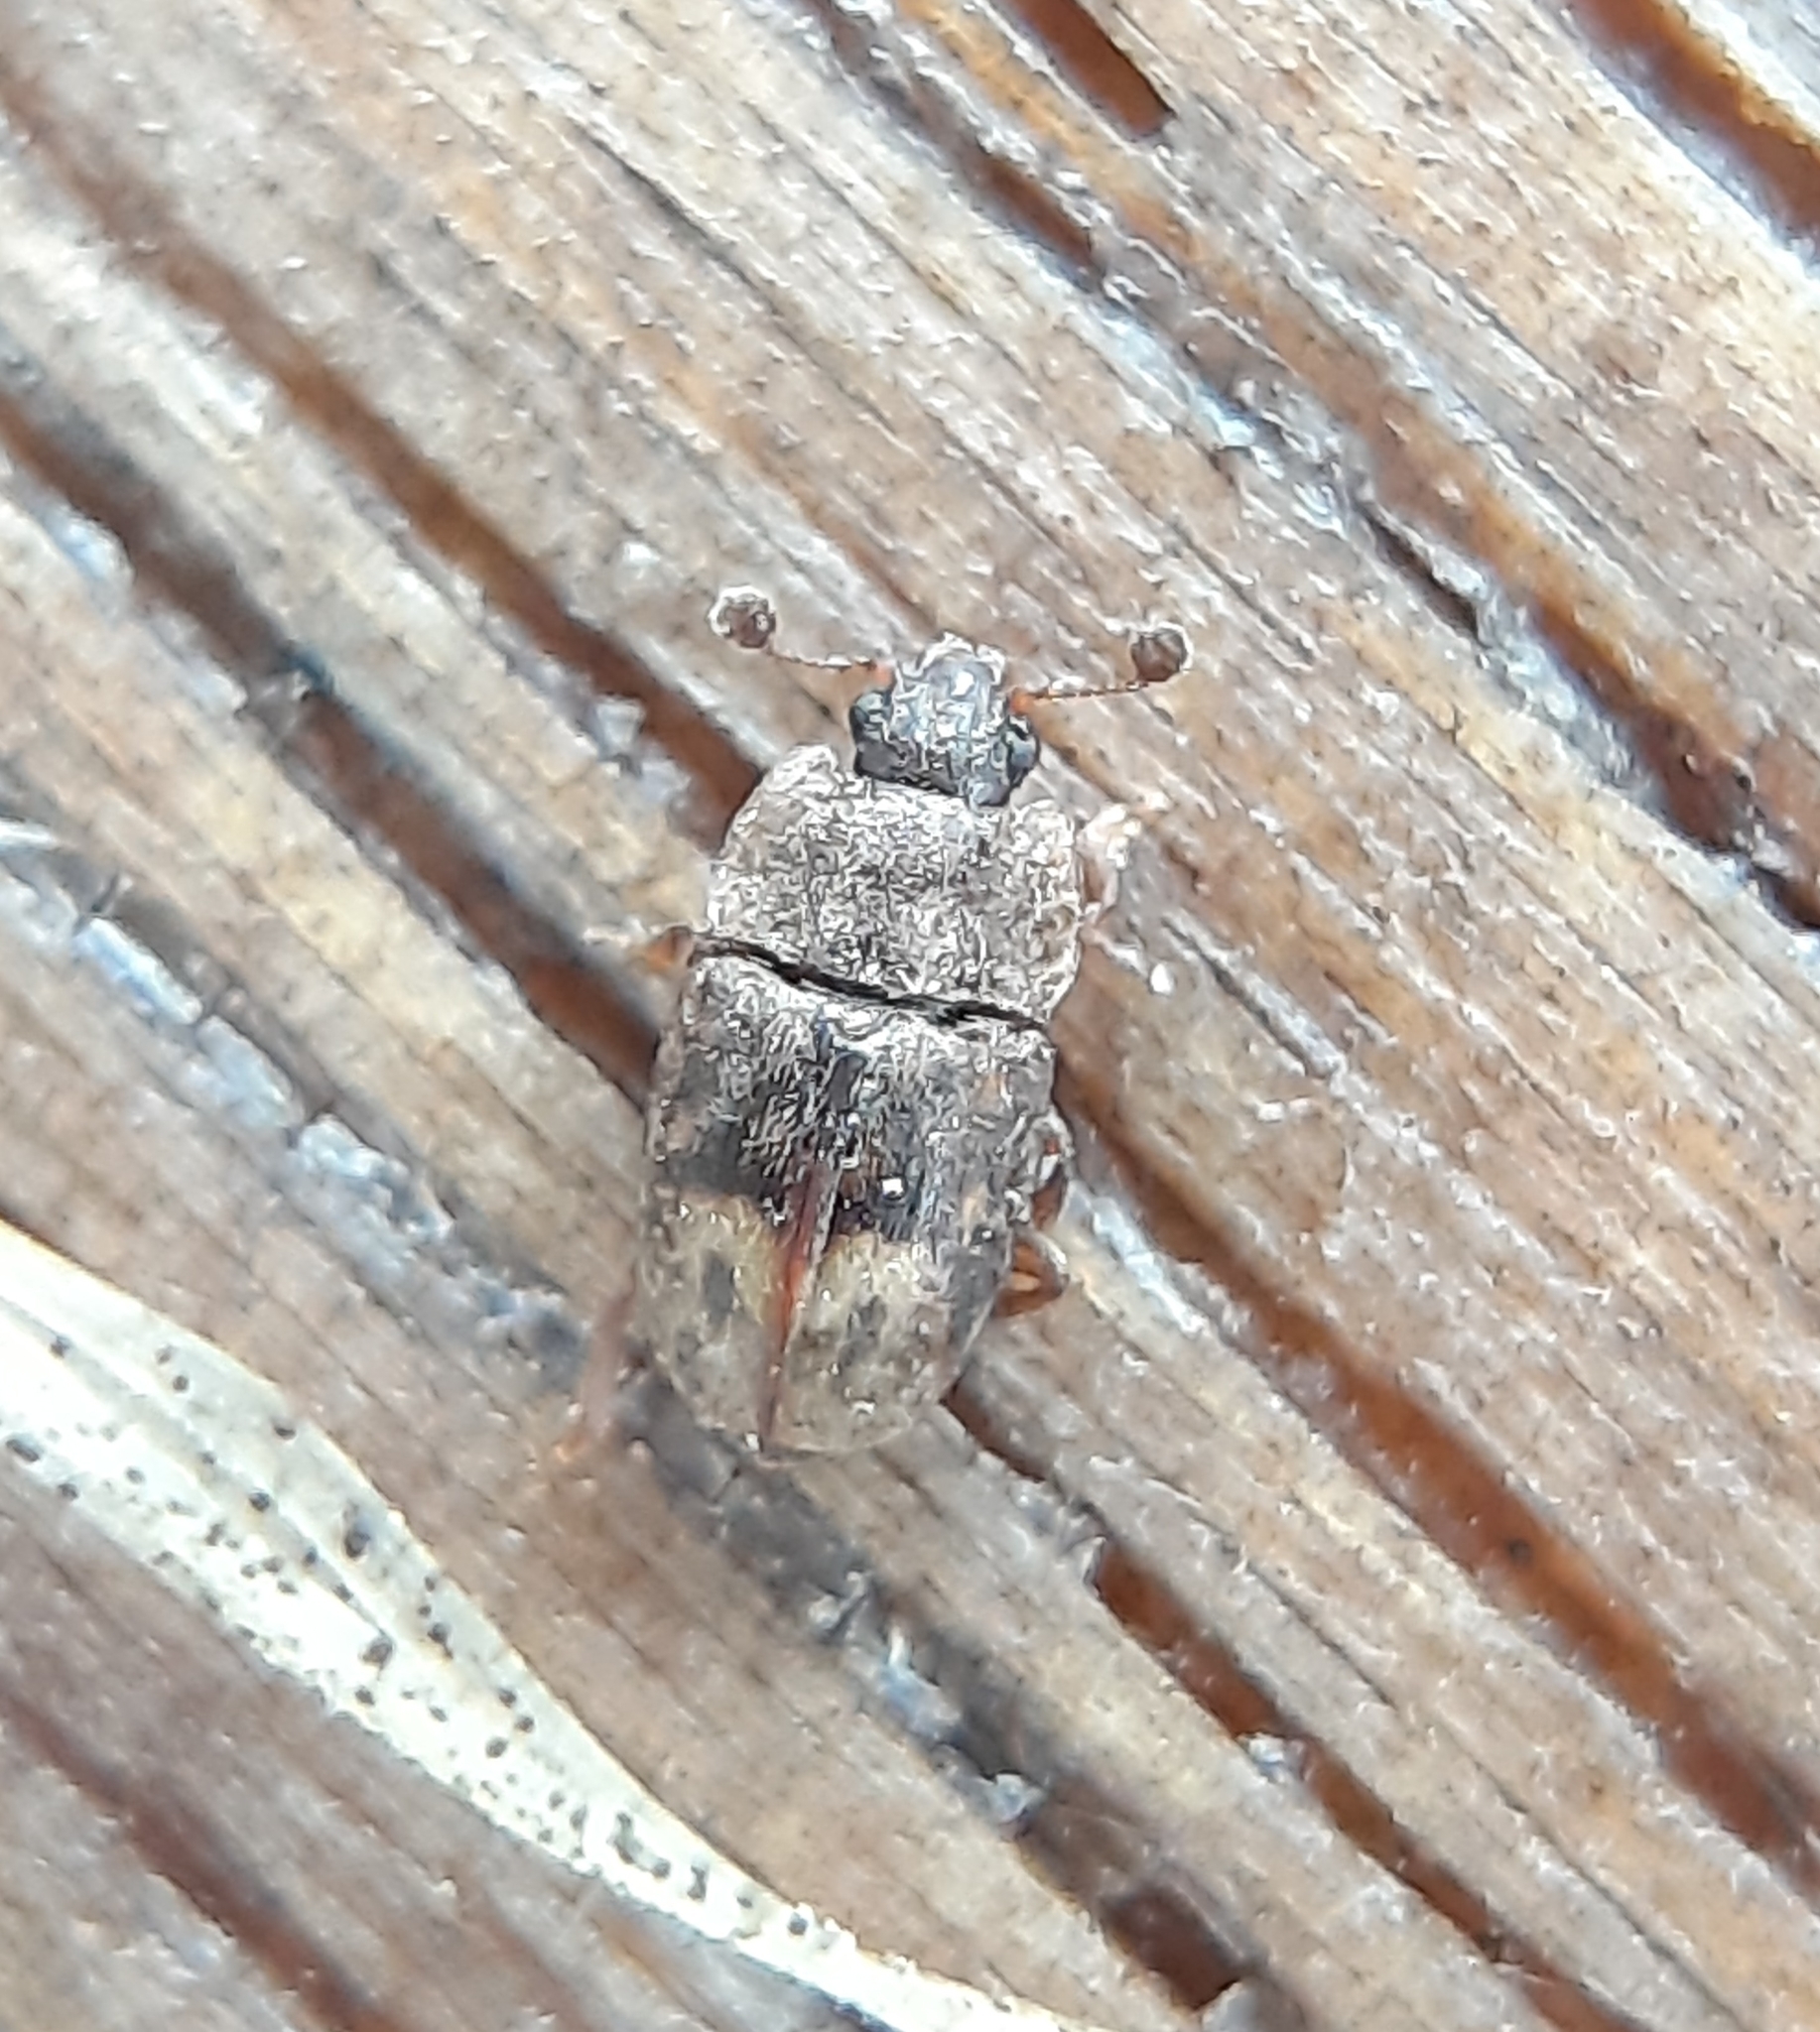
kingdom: Animalia
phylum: Arthropoda
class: Insecta
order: Coleoptera
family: Nitidulidae
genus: Omosita
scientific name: Omosita nearctica
